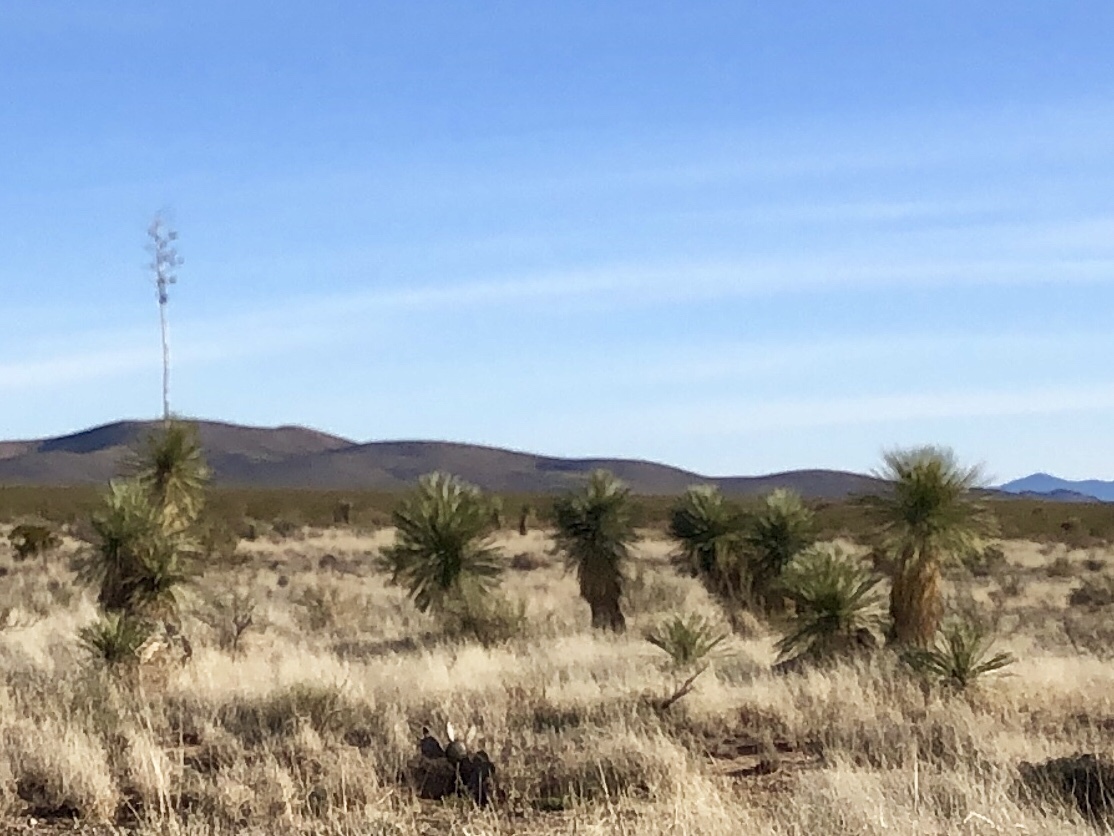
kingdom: Plantae
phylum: Tracheophyta
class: Liliopsida
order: Asparagales
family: Asparagaceae
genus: Yucca
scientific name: Yucca elata
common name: Palmella
